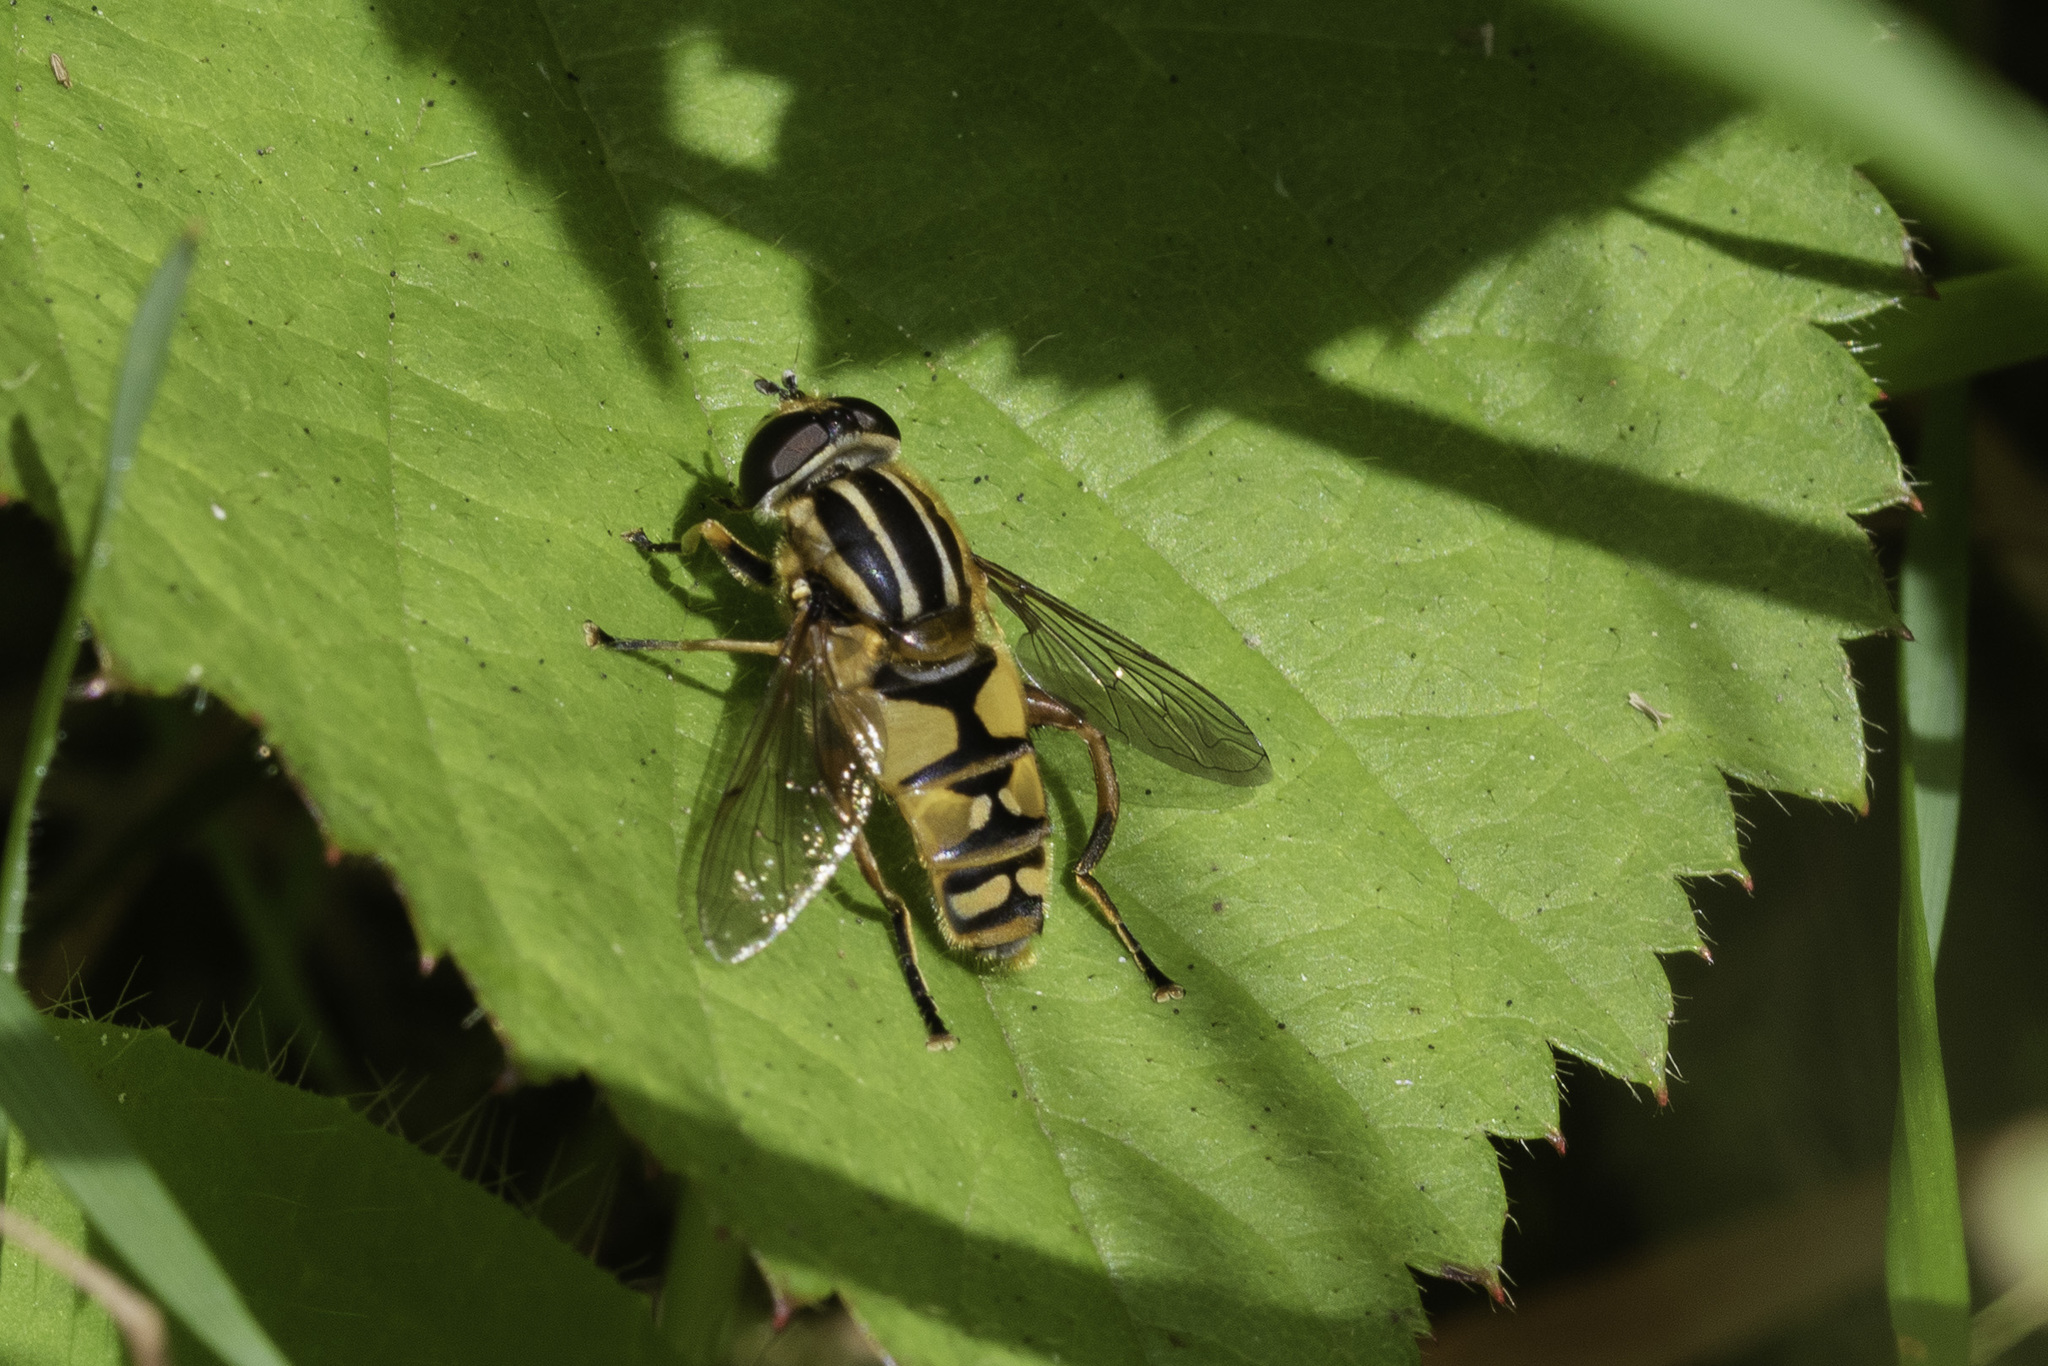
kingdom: Animalia
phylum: Arthropoda
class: Insecta
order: Diptera
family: Syrphidae
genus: Helophilus
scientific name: Helophilus pendulus
